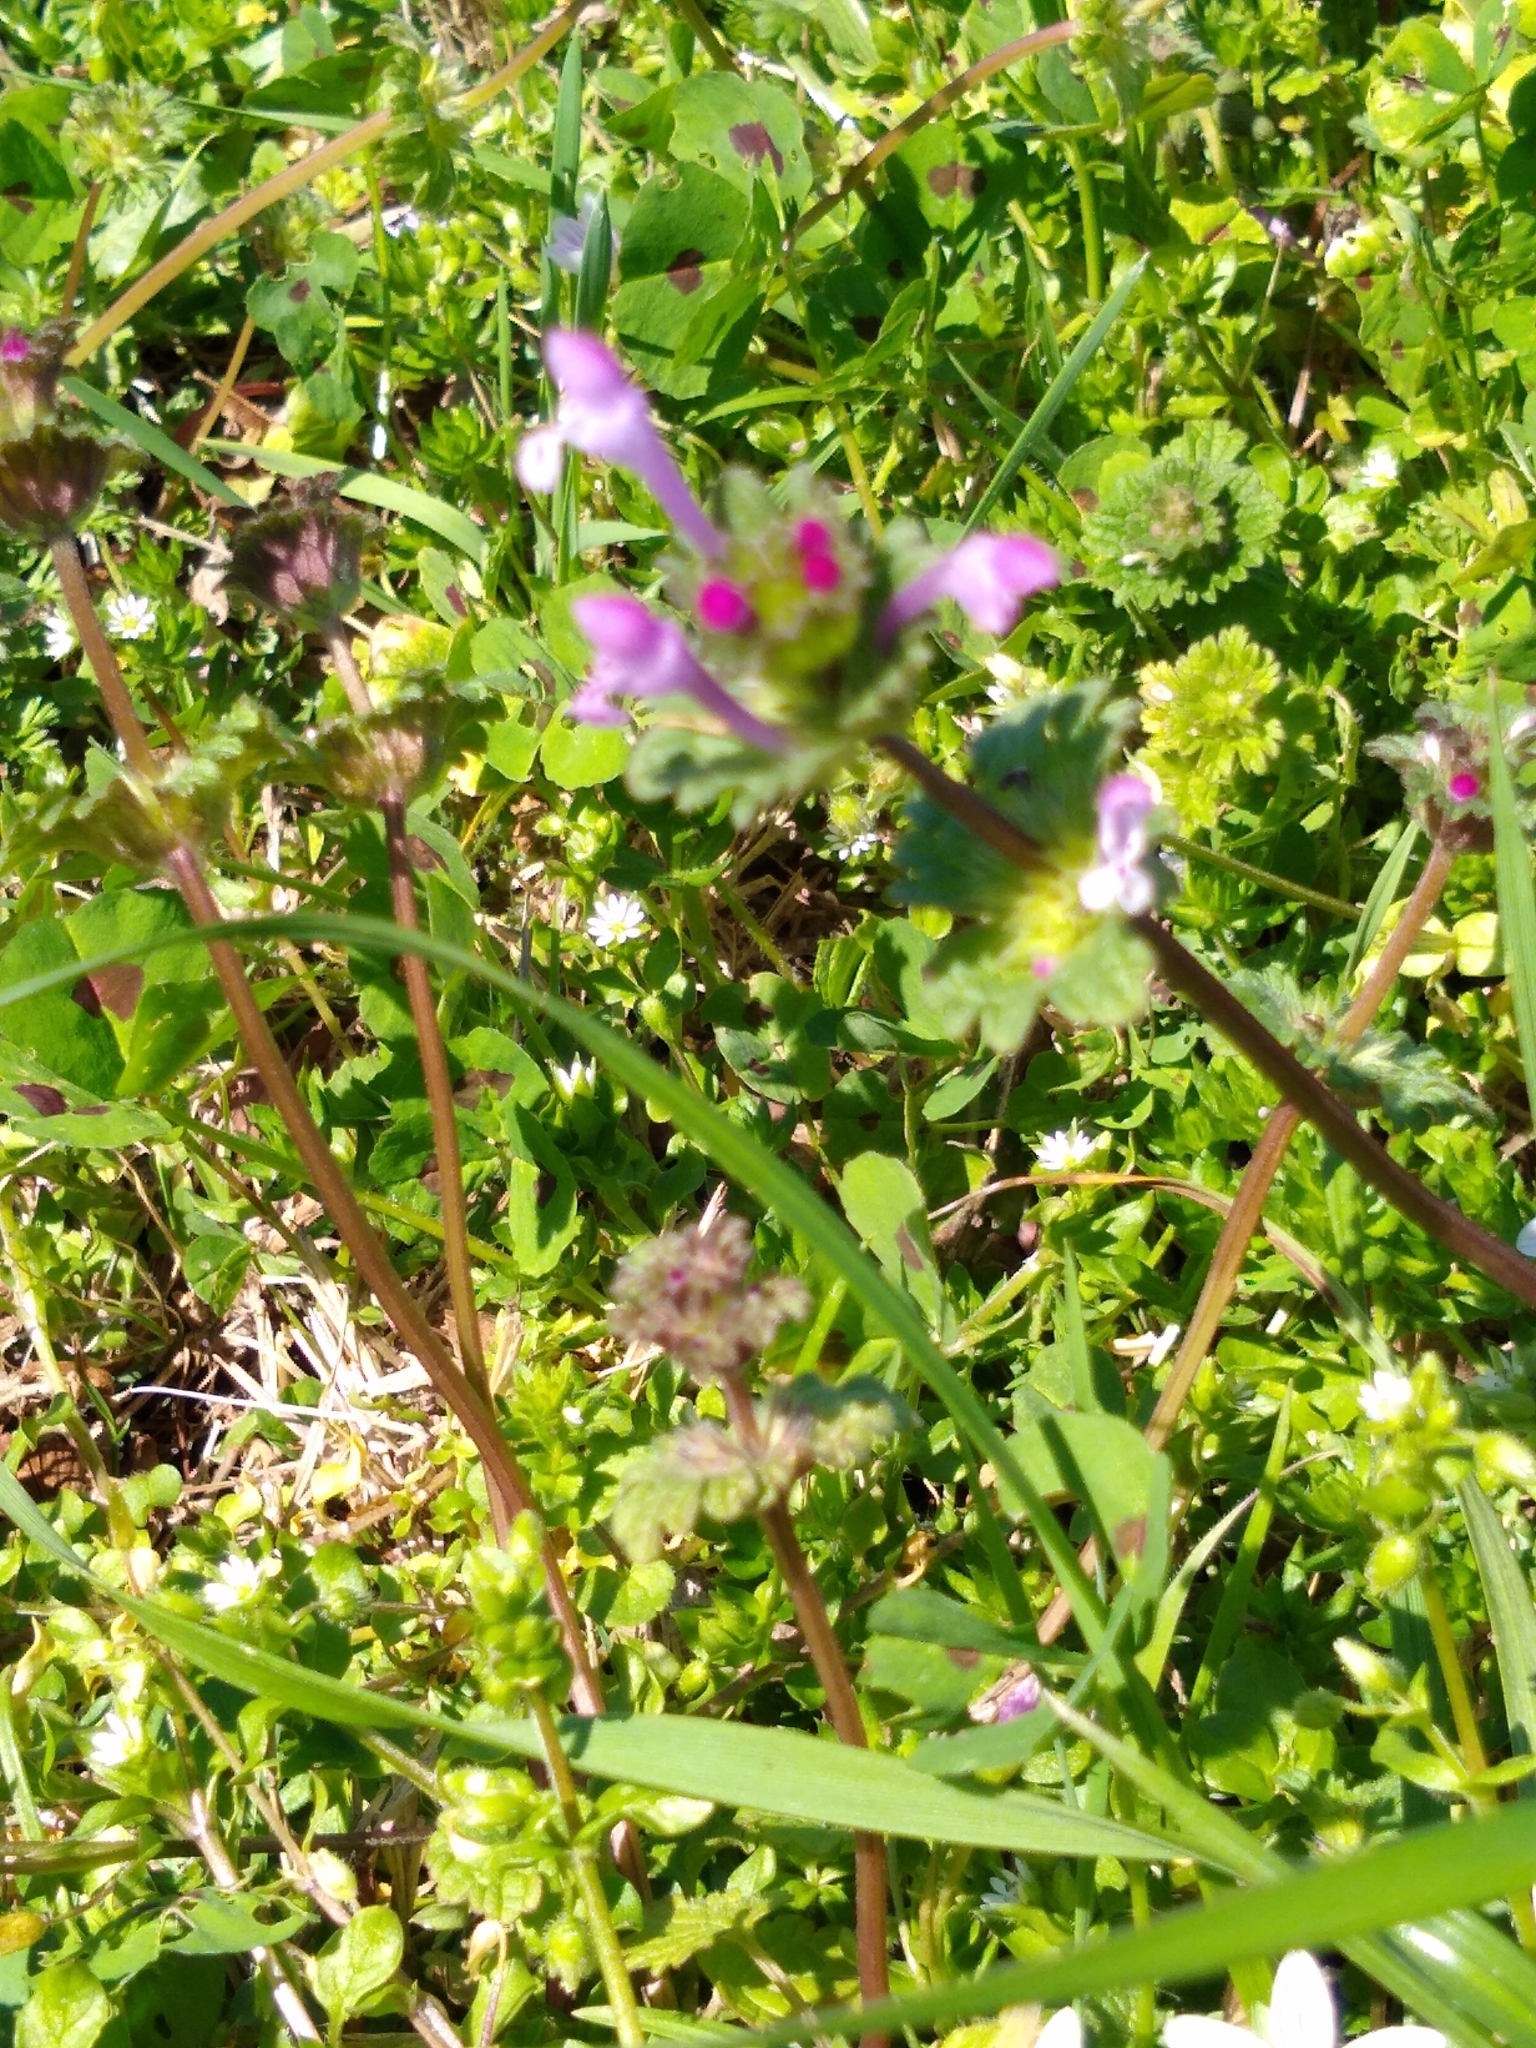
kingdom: Plantae
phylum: Tracheophyta
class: Magnoliopsida
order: Lamiales
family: Lamiaceae
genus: Lamium
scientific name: Lamium amplexicaule
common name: Henbit dead-nettle
